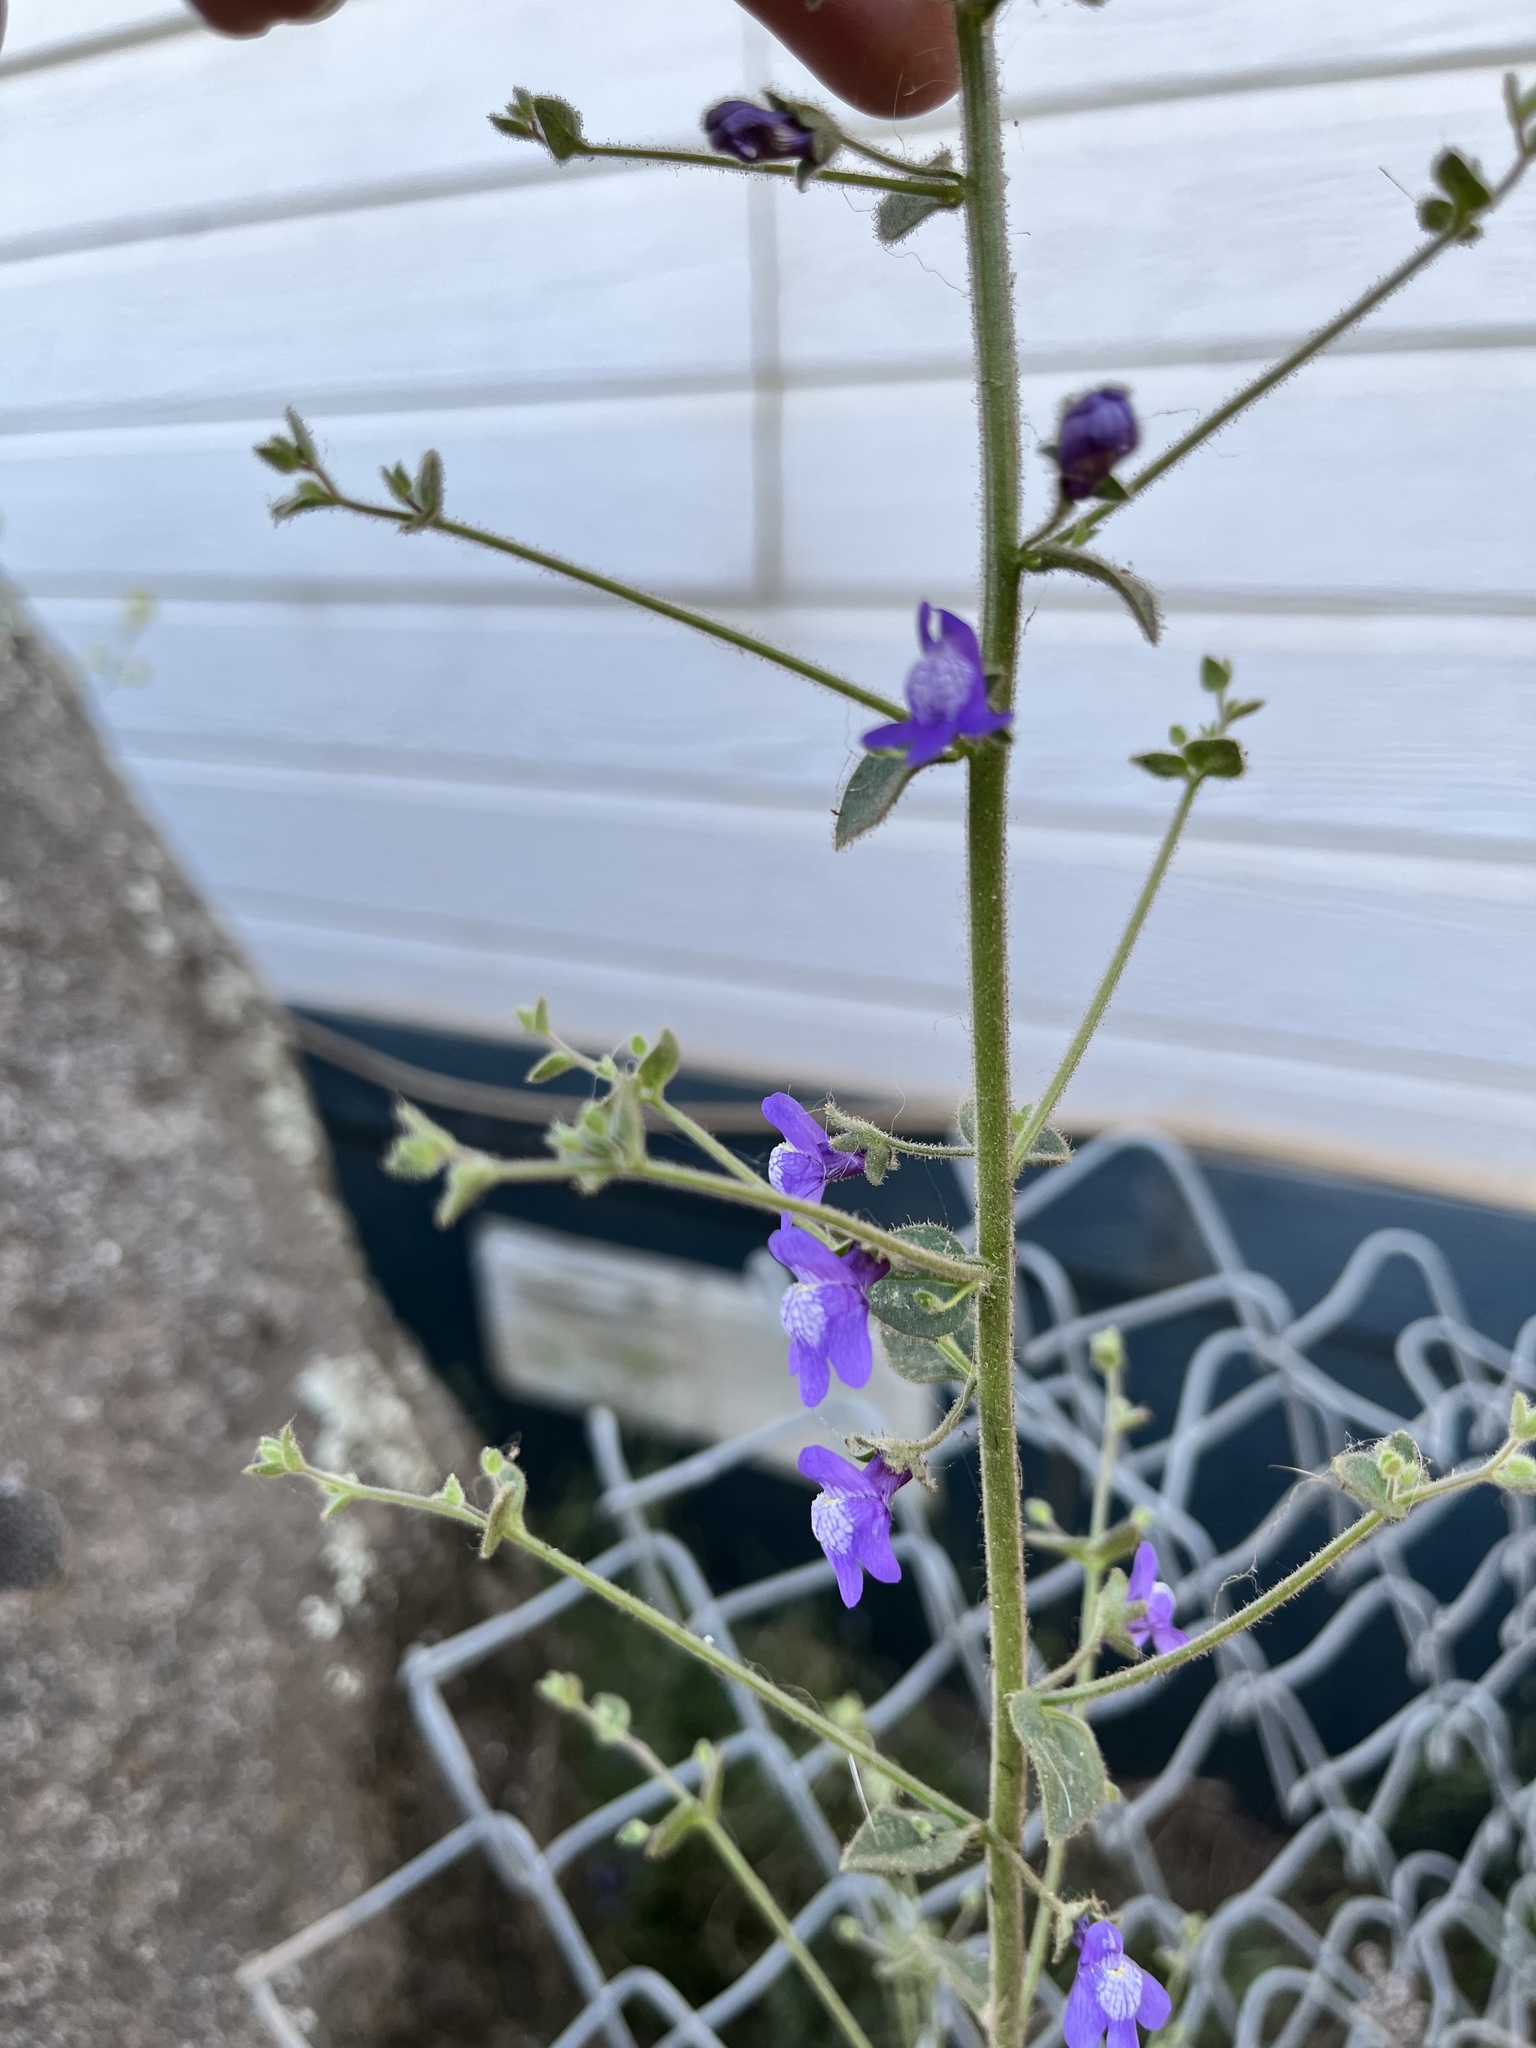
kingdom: Plantae
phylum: Tracheophyta
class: Magnoliopsida
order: Lamiales
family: Plantaginaceae
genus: Sairocarpus
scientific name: Sairocarpus nuttallianus
